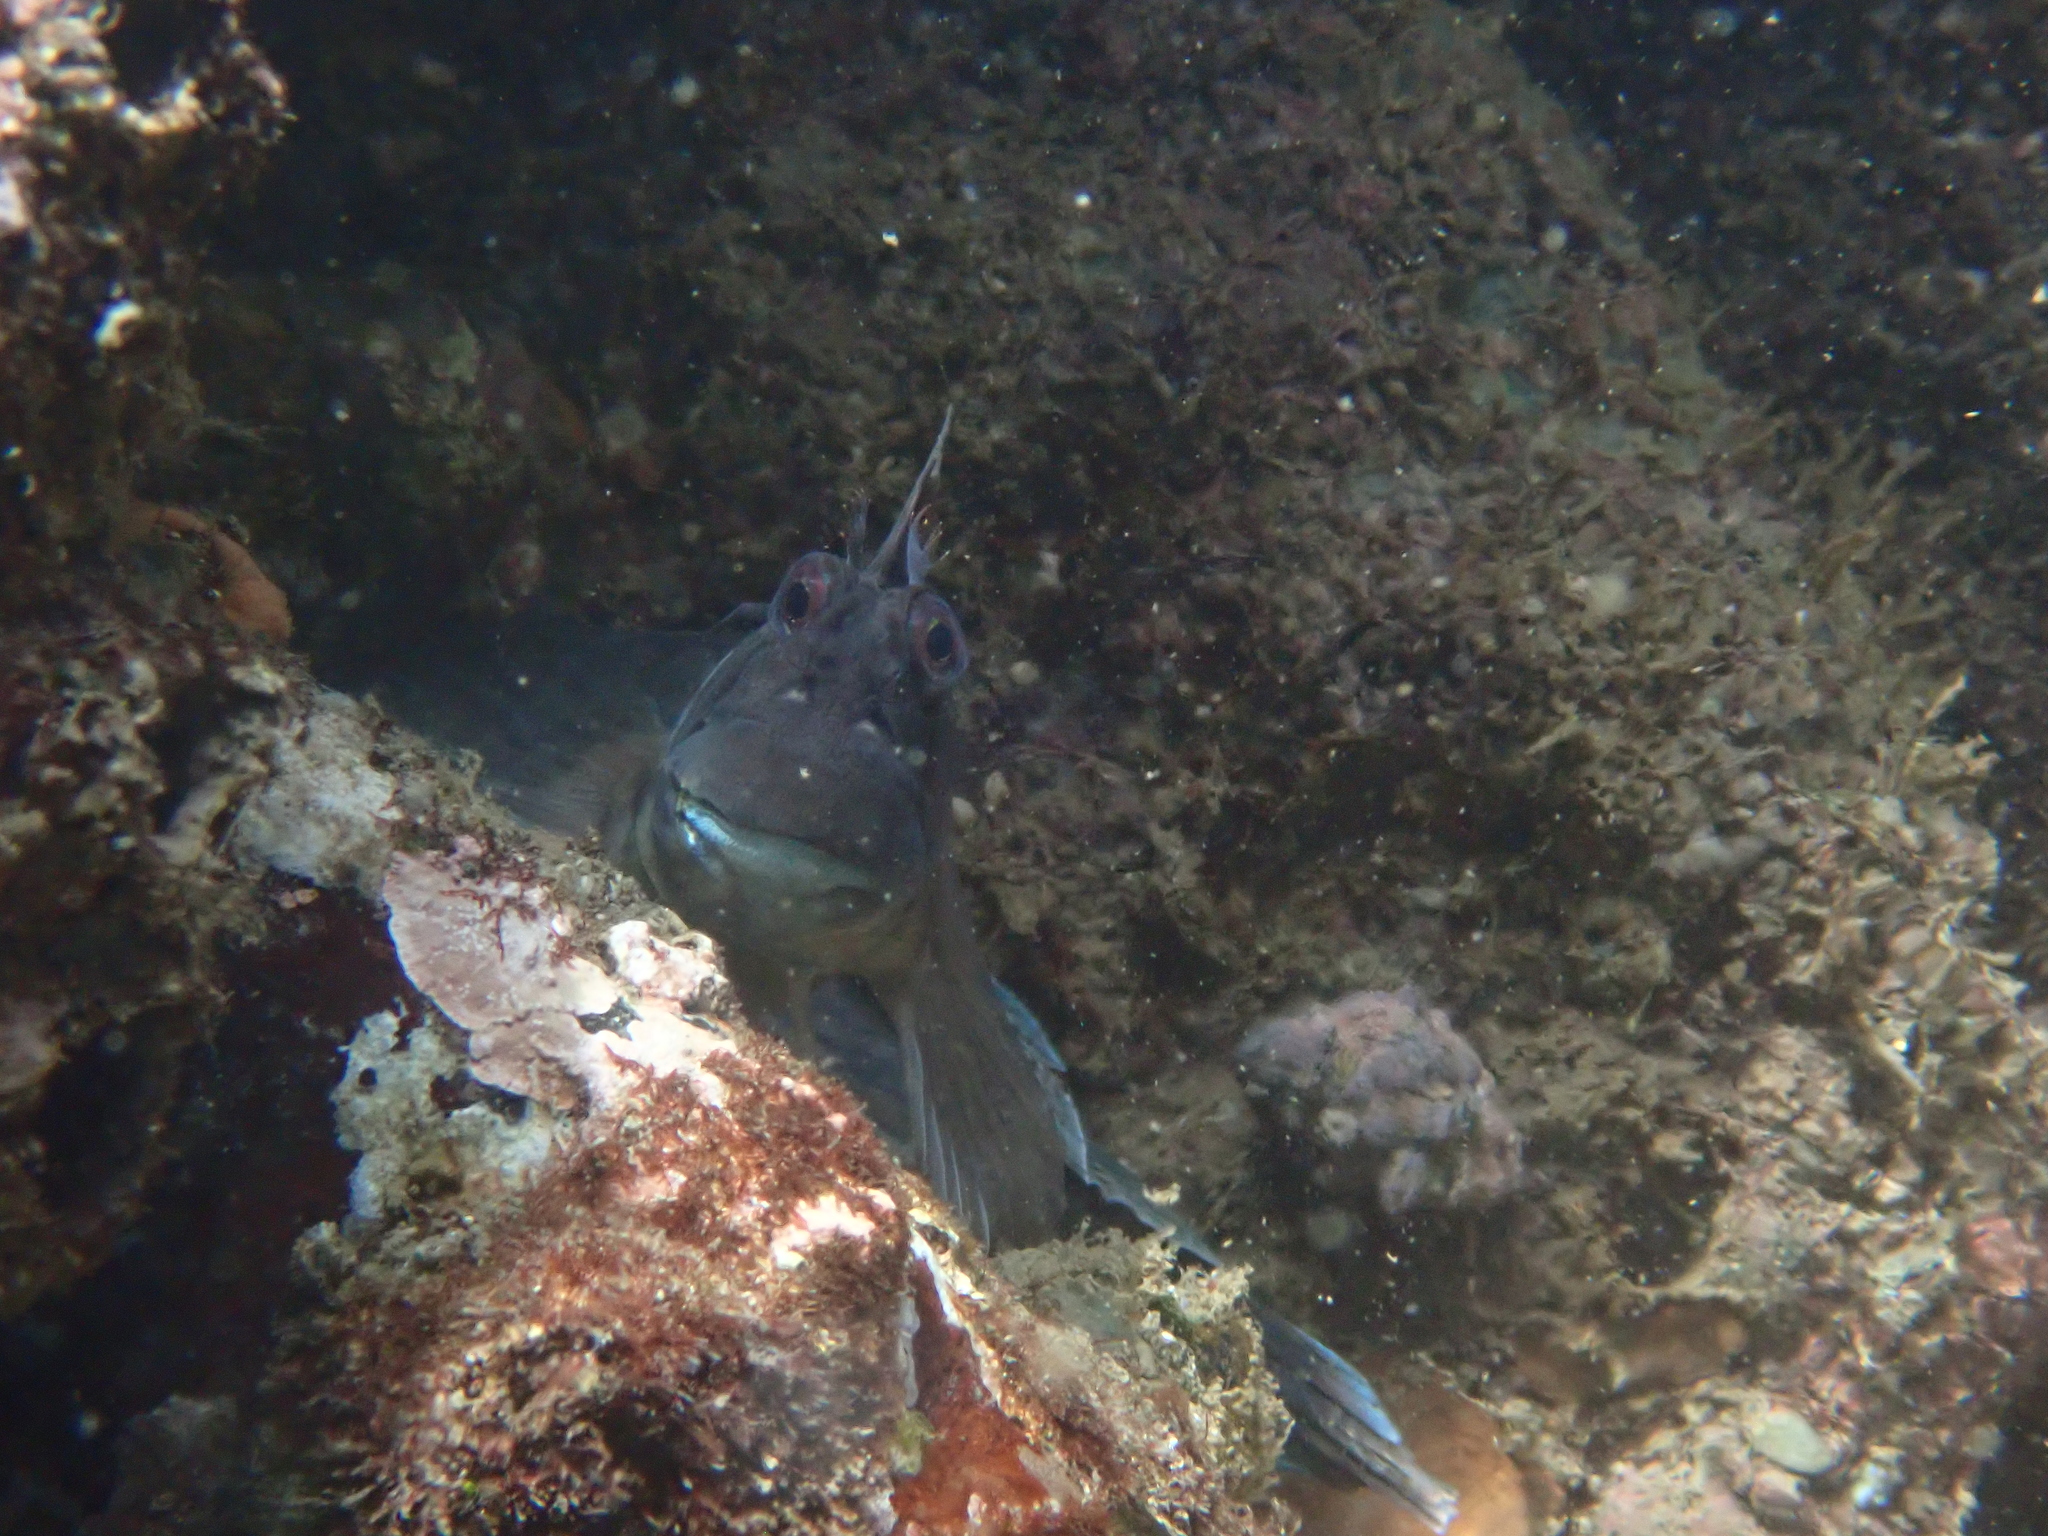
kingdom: Animalia
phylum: Chordata
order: Perciformes
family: Blenniidae
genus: Istiblennius
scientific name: Istiblennius lineatus
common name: Black-lined blenny
